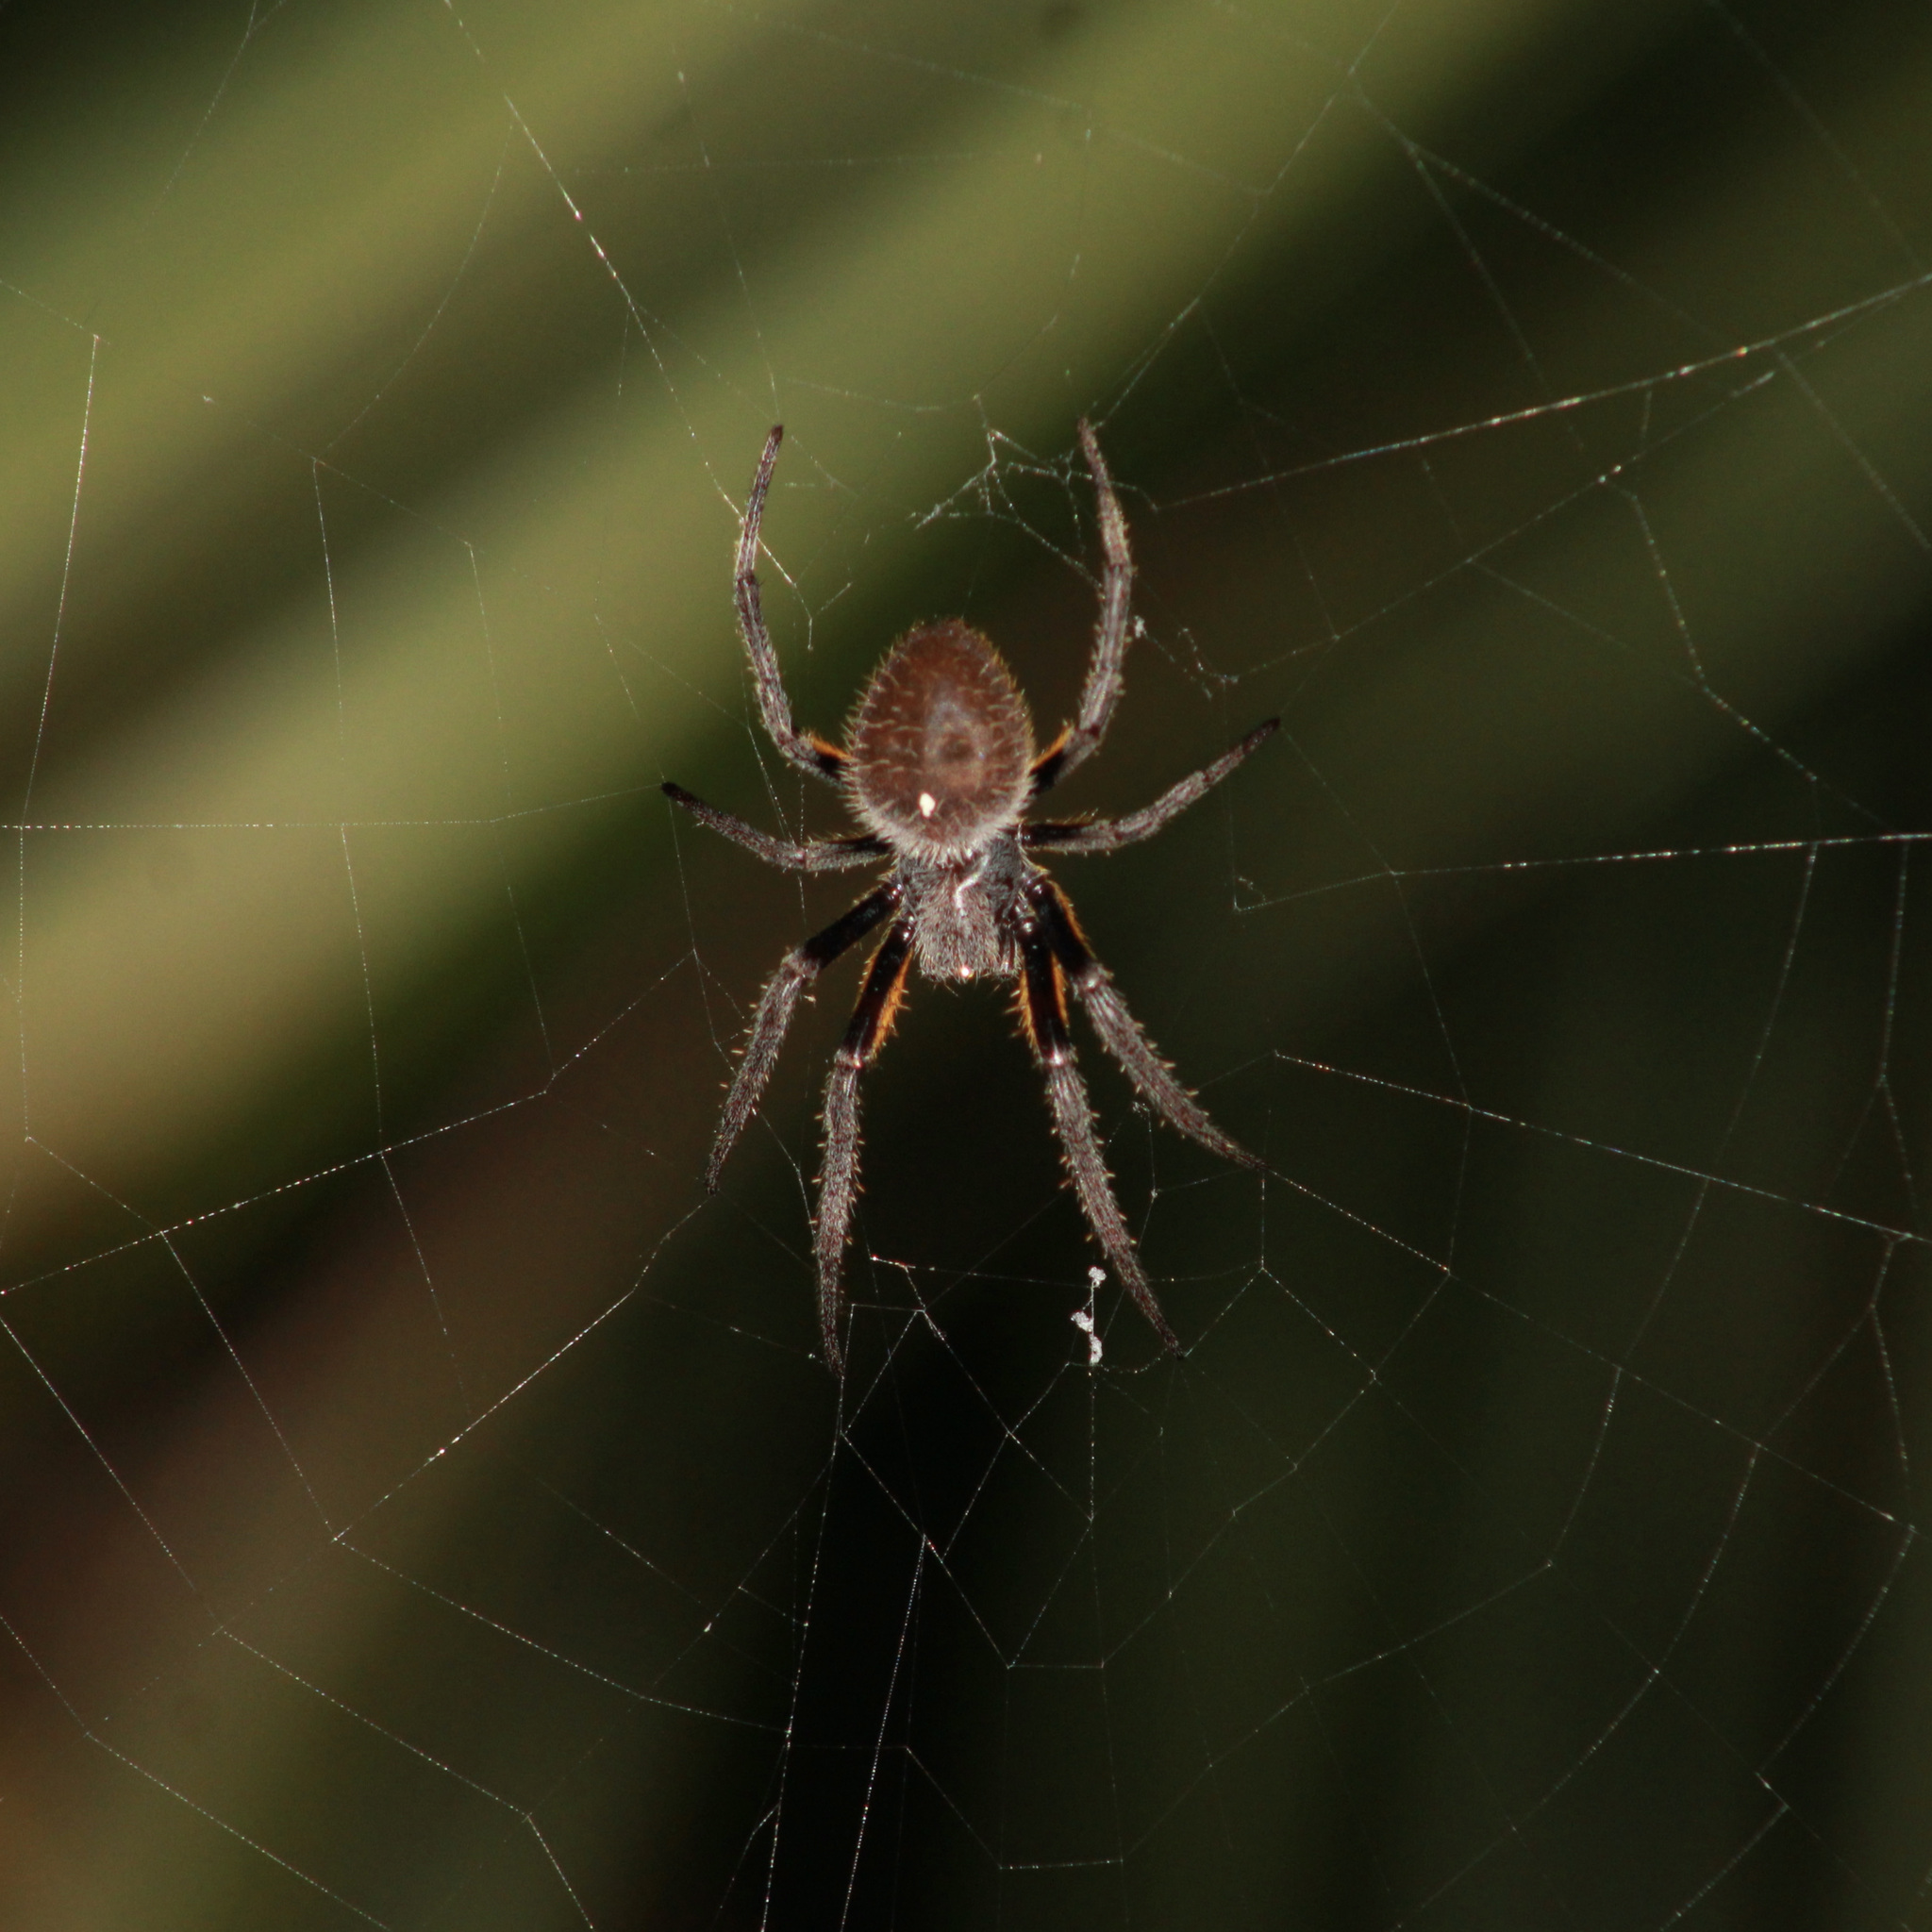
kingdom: Animalia
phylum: Arthropoda
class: Arachnida
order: Araneae
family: Araneidae
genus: Eriophora
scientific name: Eriophora fuliginea
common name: Orb weavers
